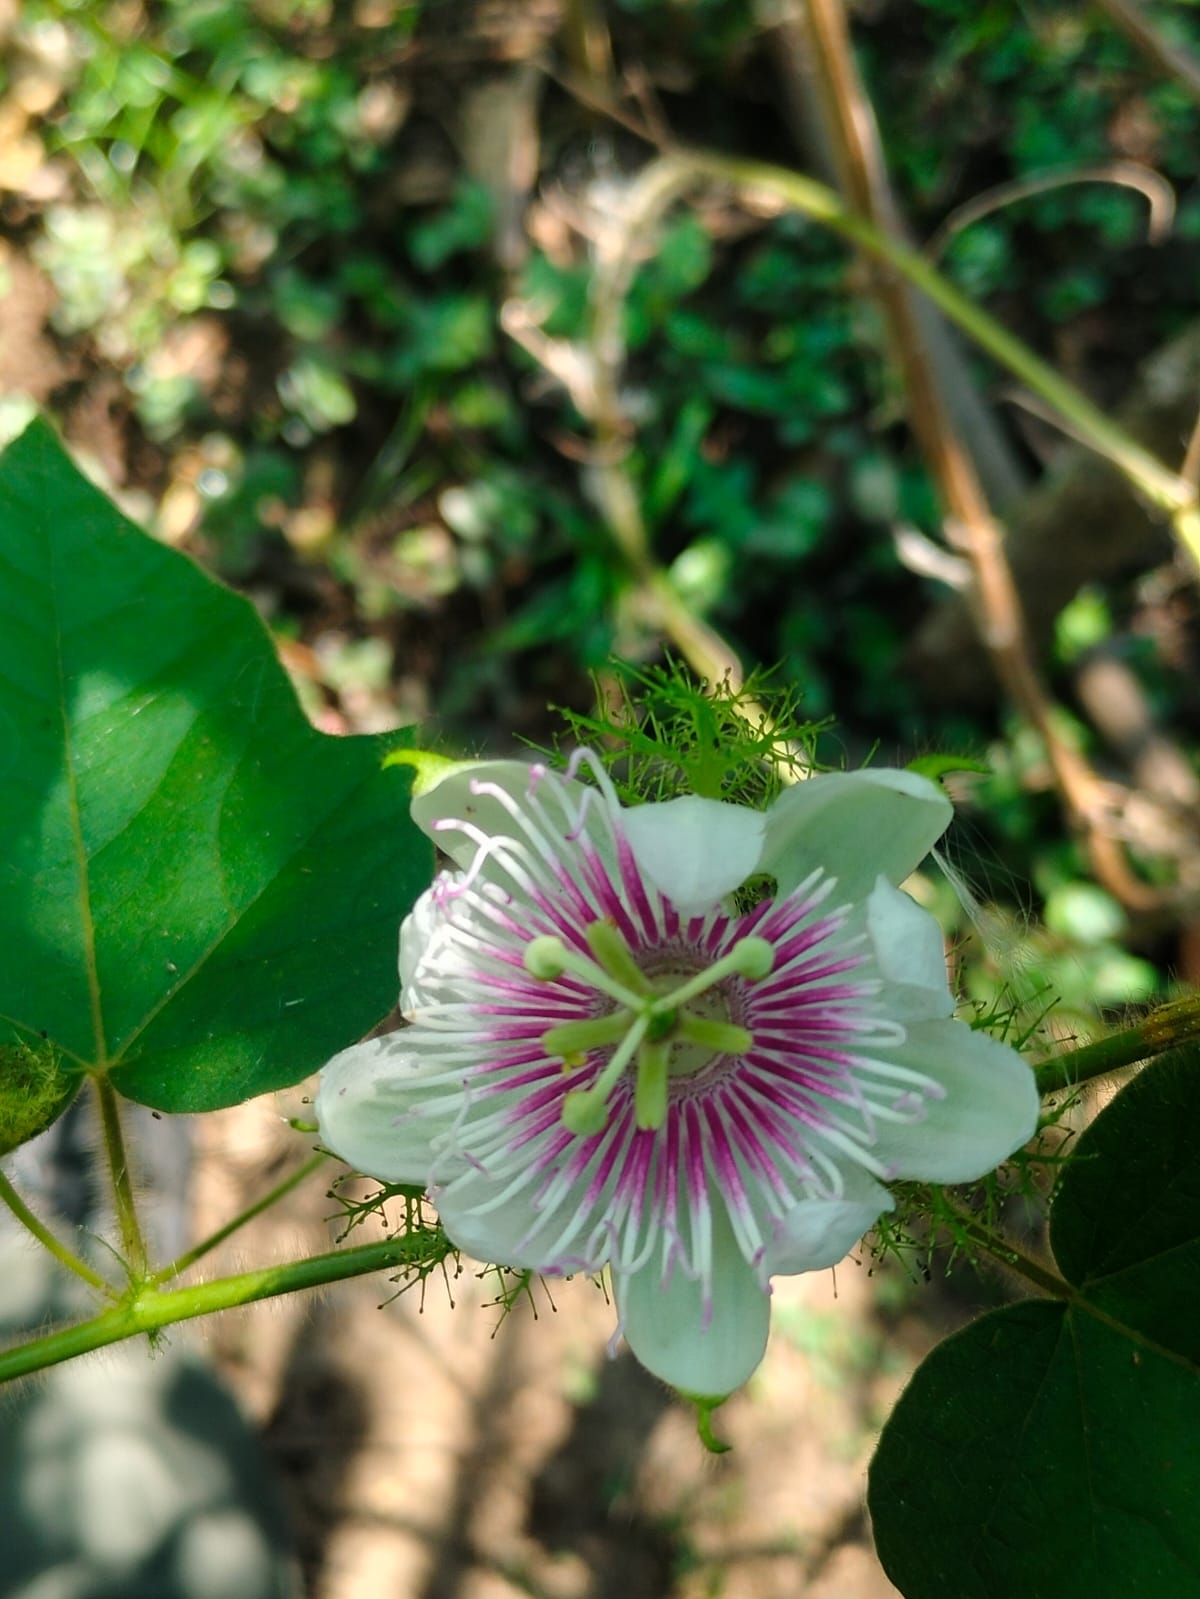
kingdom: Plantae
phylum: Tracheophyta
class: Magnoliopsida
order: Malpighiales
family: Passifloraceae
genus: Passiflora
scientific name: Passiflora vesicaria
